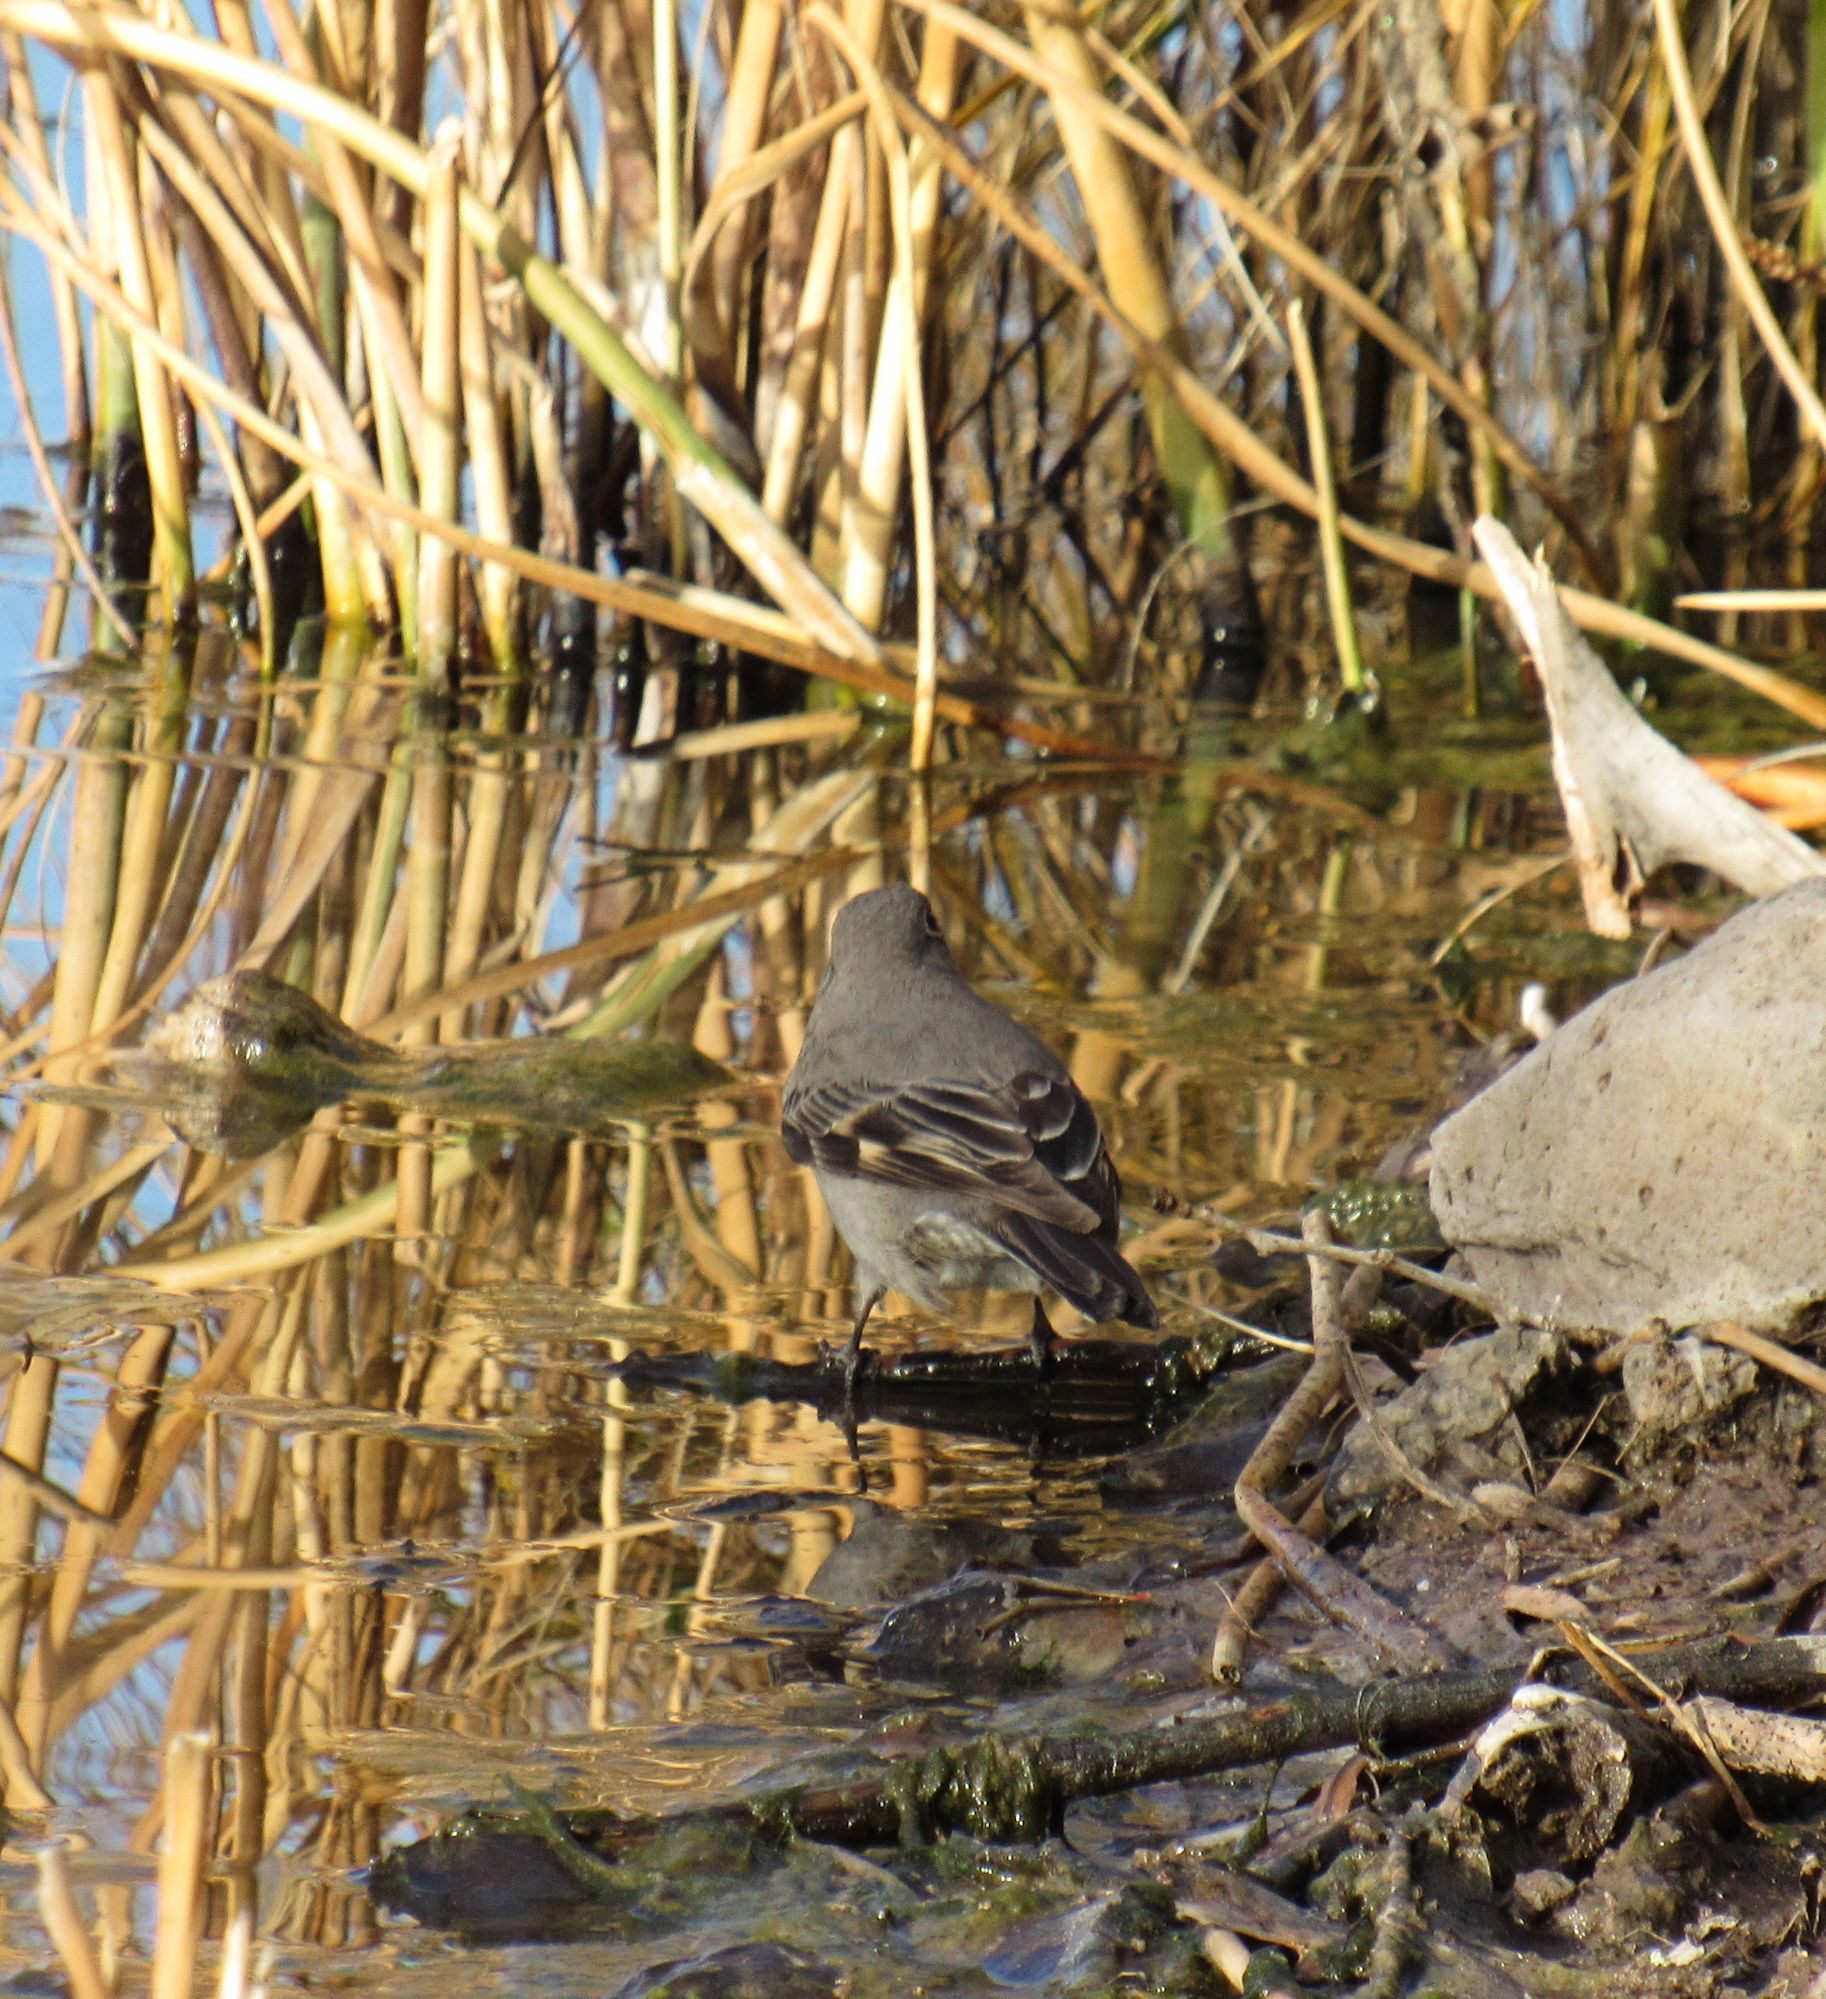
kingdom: Animalia
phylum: Chordata
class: Aves
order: Passeriformes
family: Turdidae
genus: Myadestes
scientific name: Myadestes townsendi
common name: Townsend's solitaire
